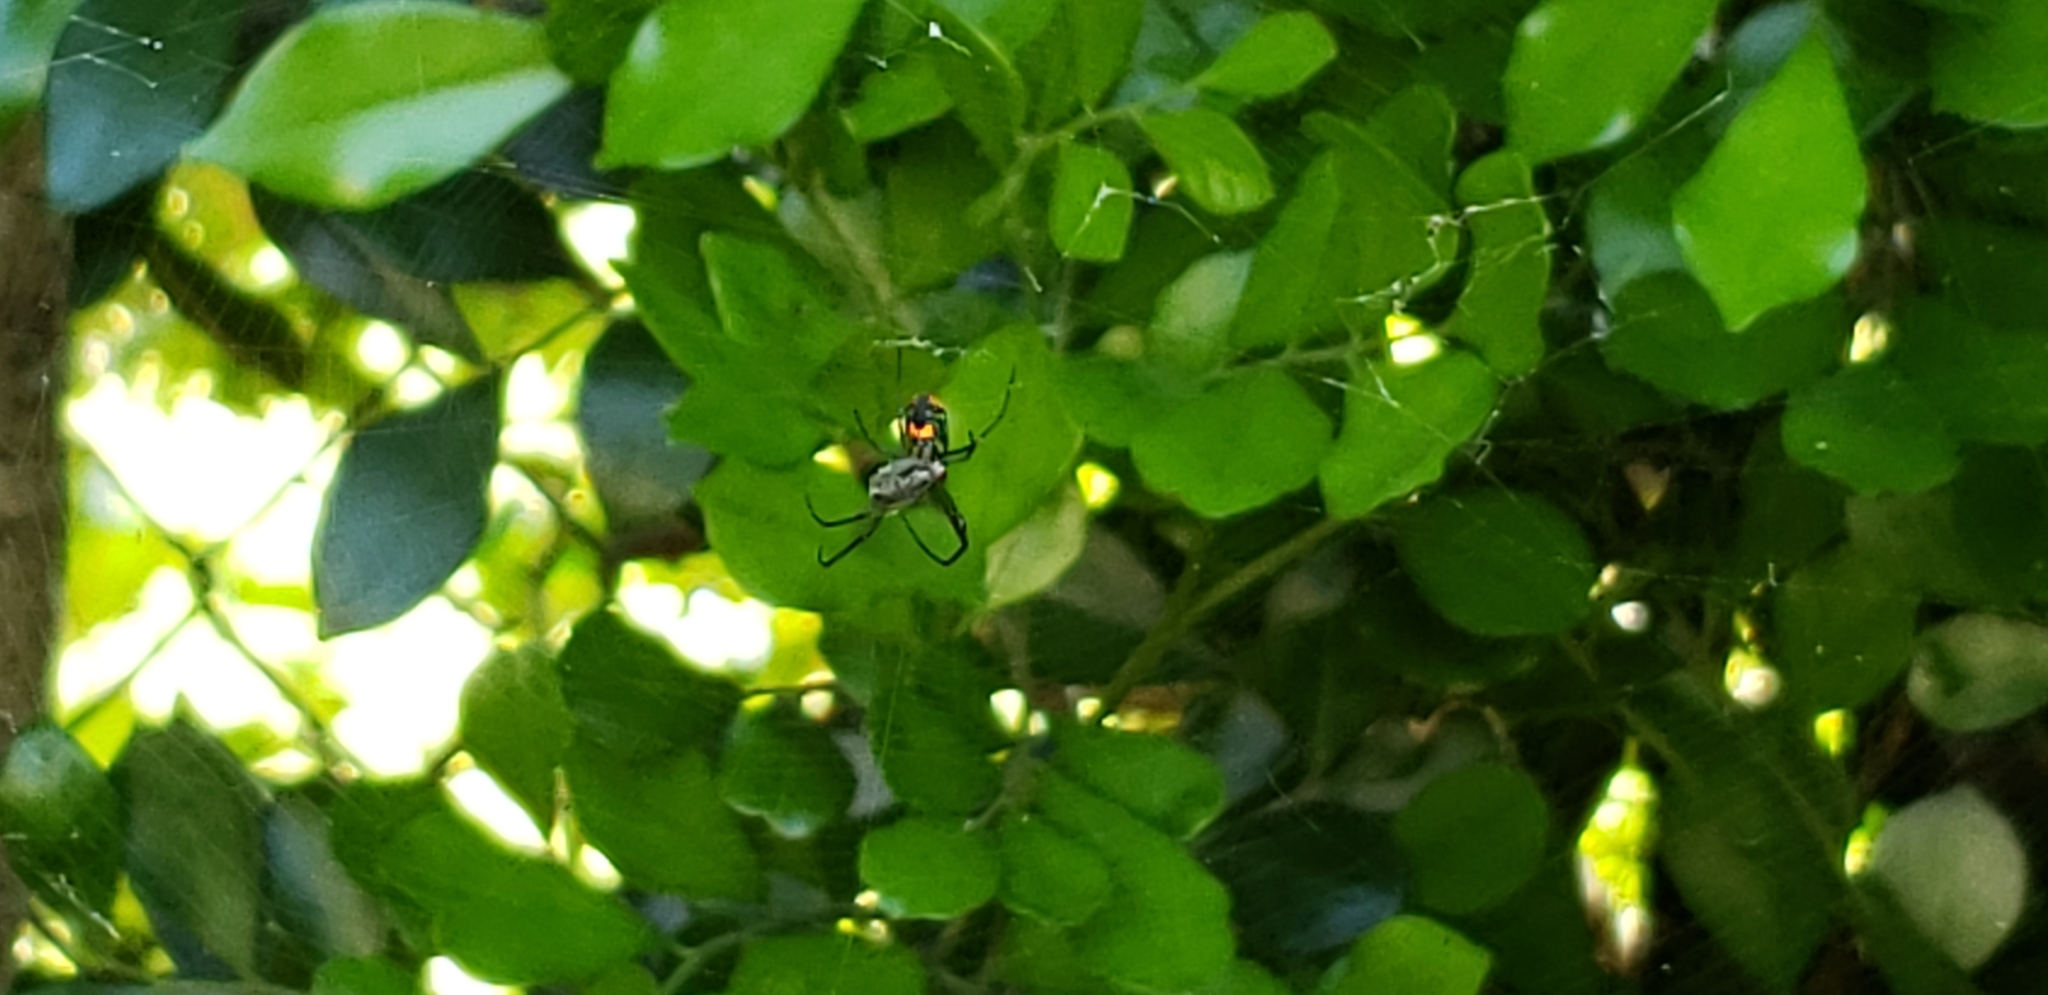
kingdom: Animalia
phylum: Arthropoda
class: Arachnida
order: Araneae
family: Tetragnathidae
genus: Leucauge
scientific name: Leucauge argyrobapta
